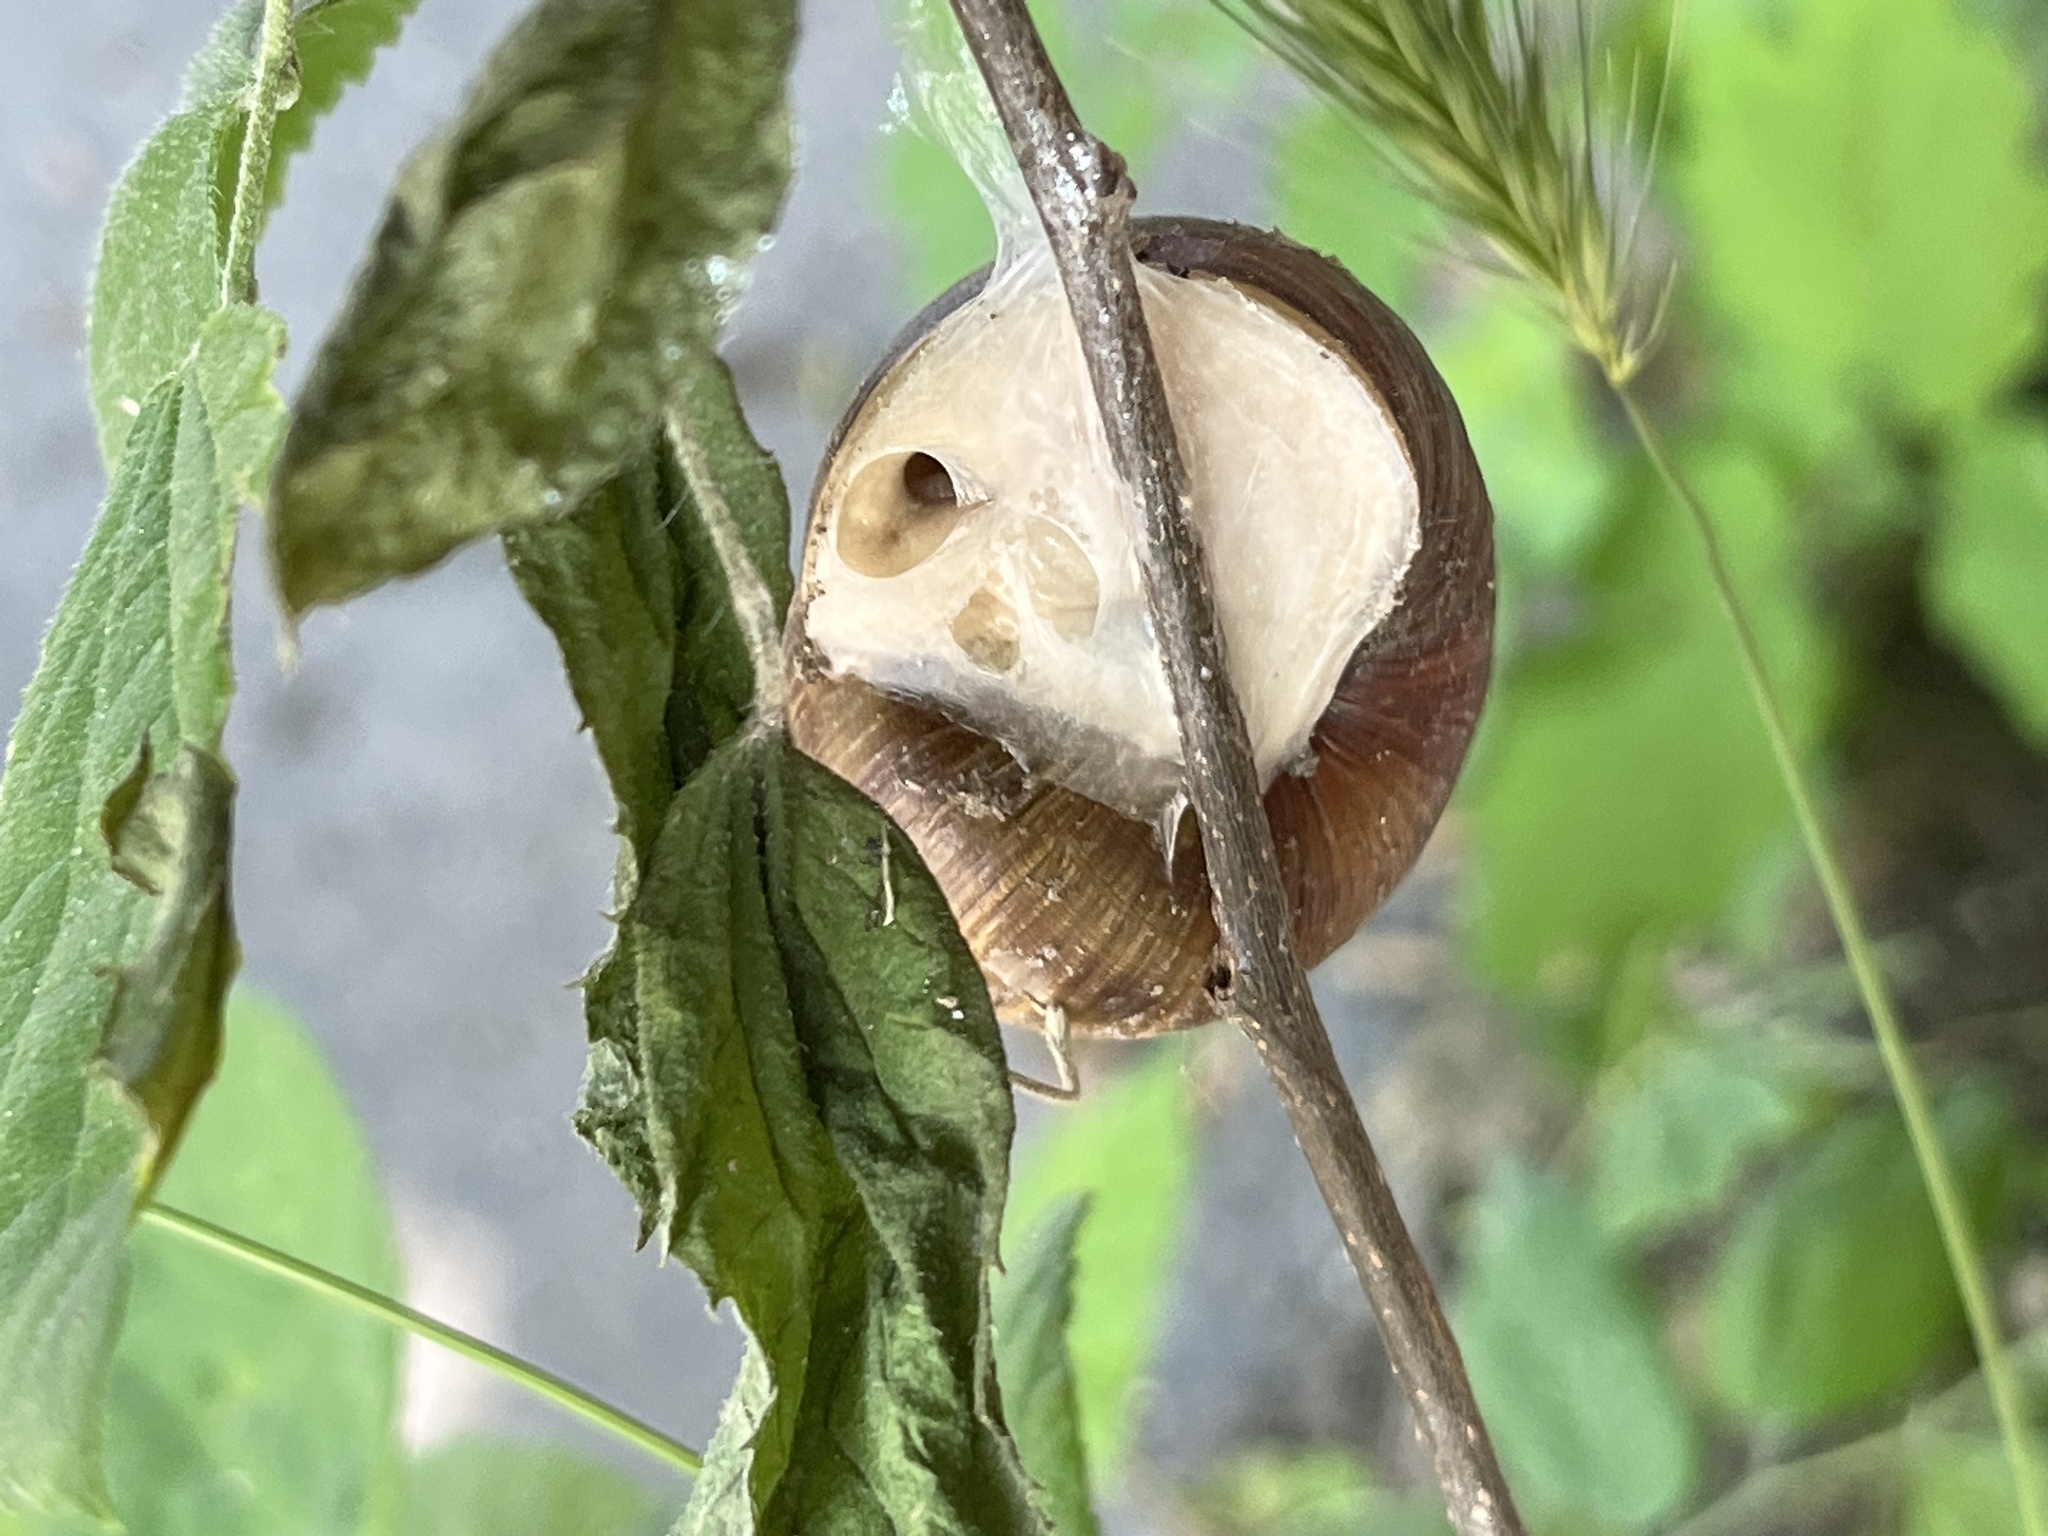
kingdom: Animalia
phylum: Mollusca
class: Gastropoda
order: Stylommatophora
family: Helicidae
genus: Helix
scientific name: Helix pomatia
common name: Roman snail
